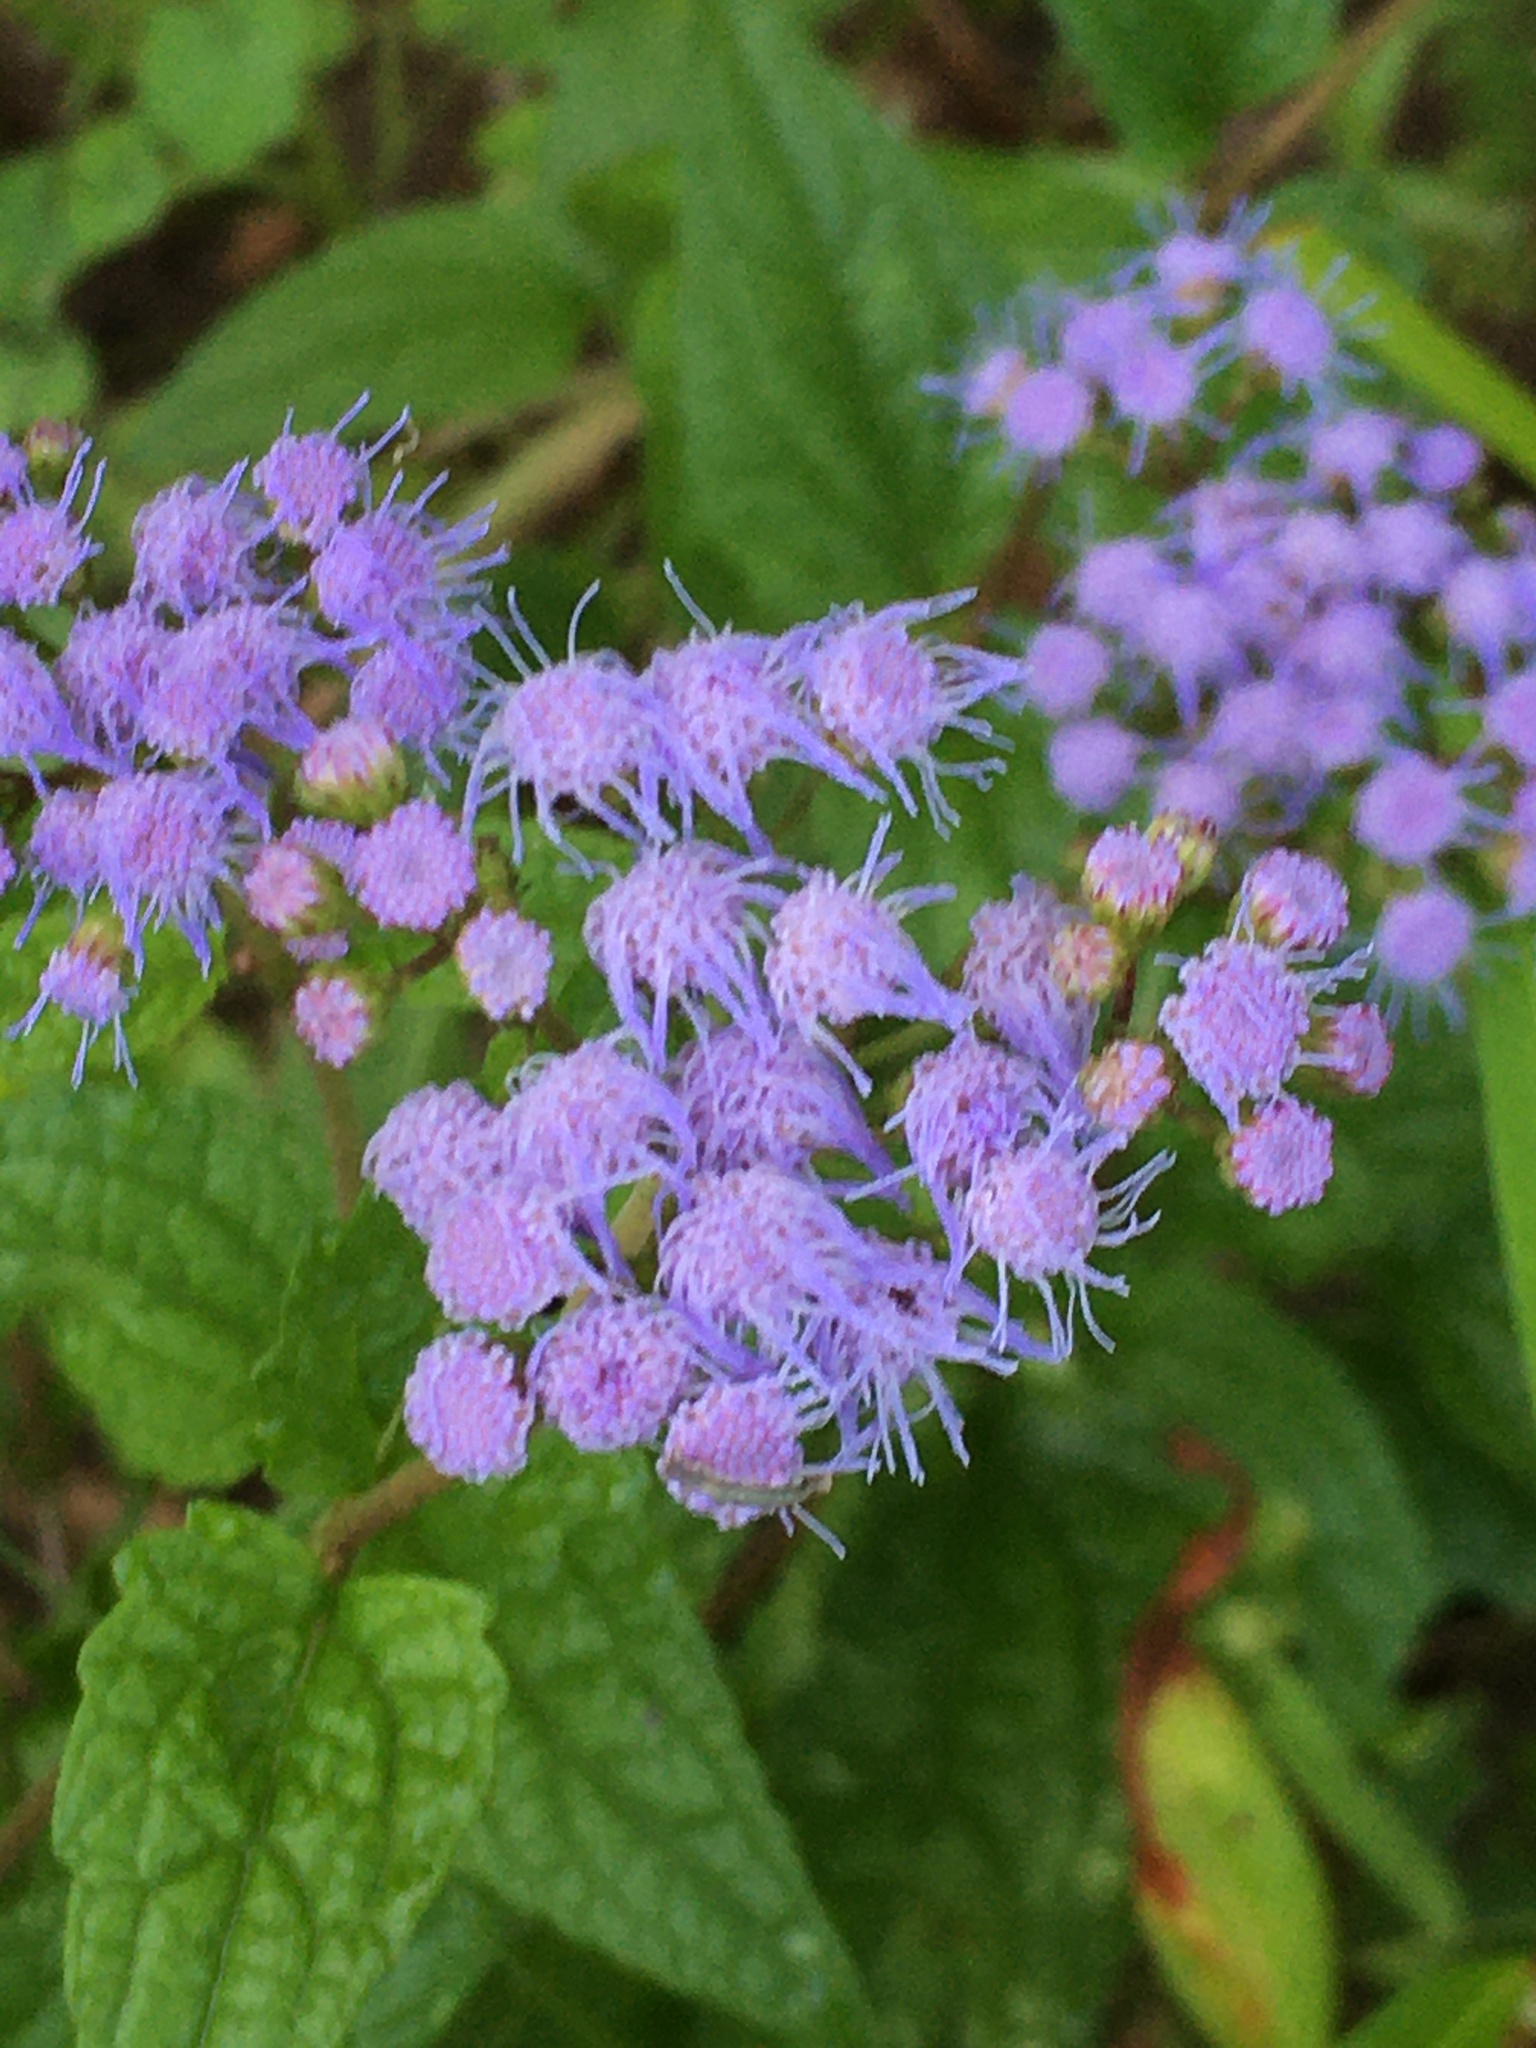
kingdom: Plantae
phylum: Tracheophyta
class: Magnoliopsida
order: Asterales
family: Asteraceae
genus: Conoclinium
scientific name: Conoclinium coelestinum
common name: Blue mistflower
